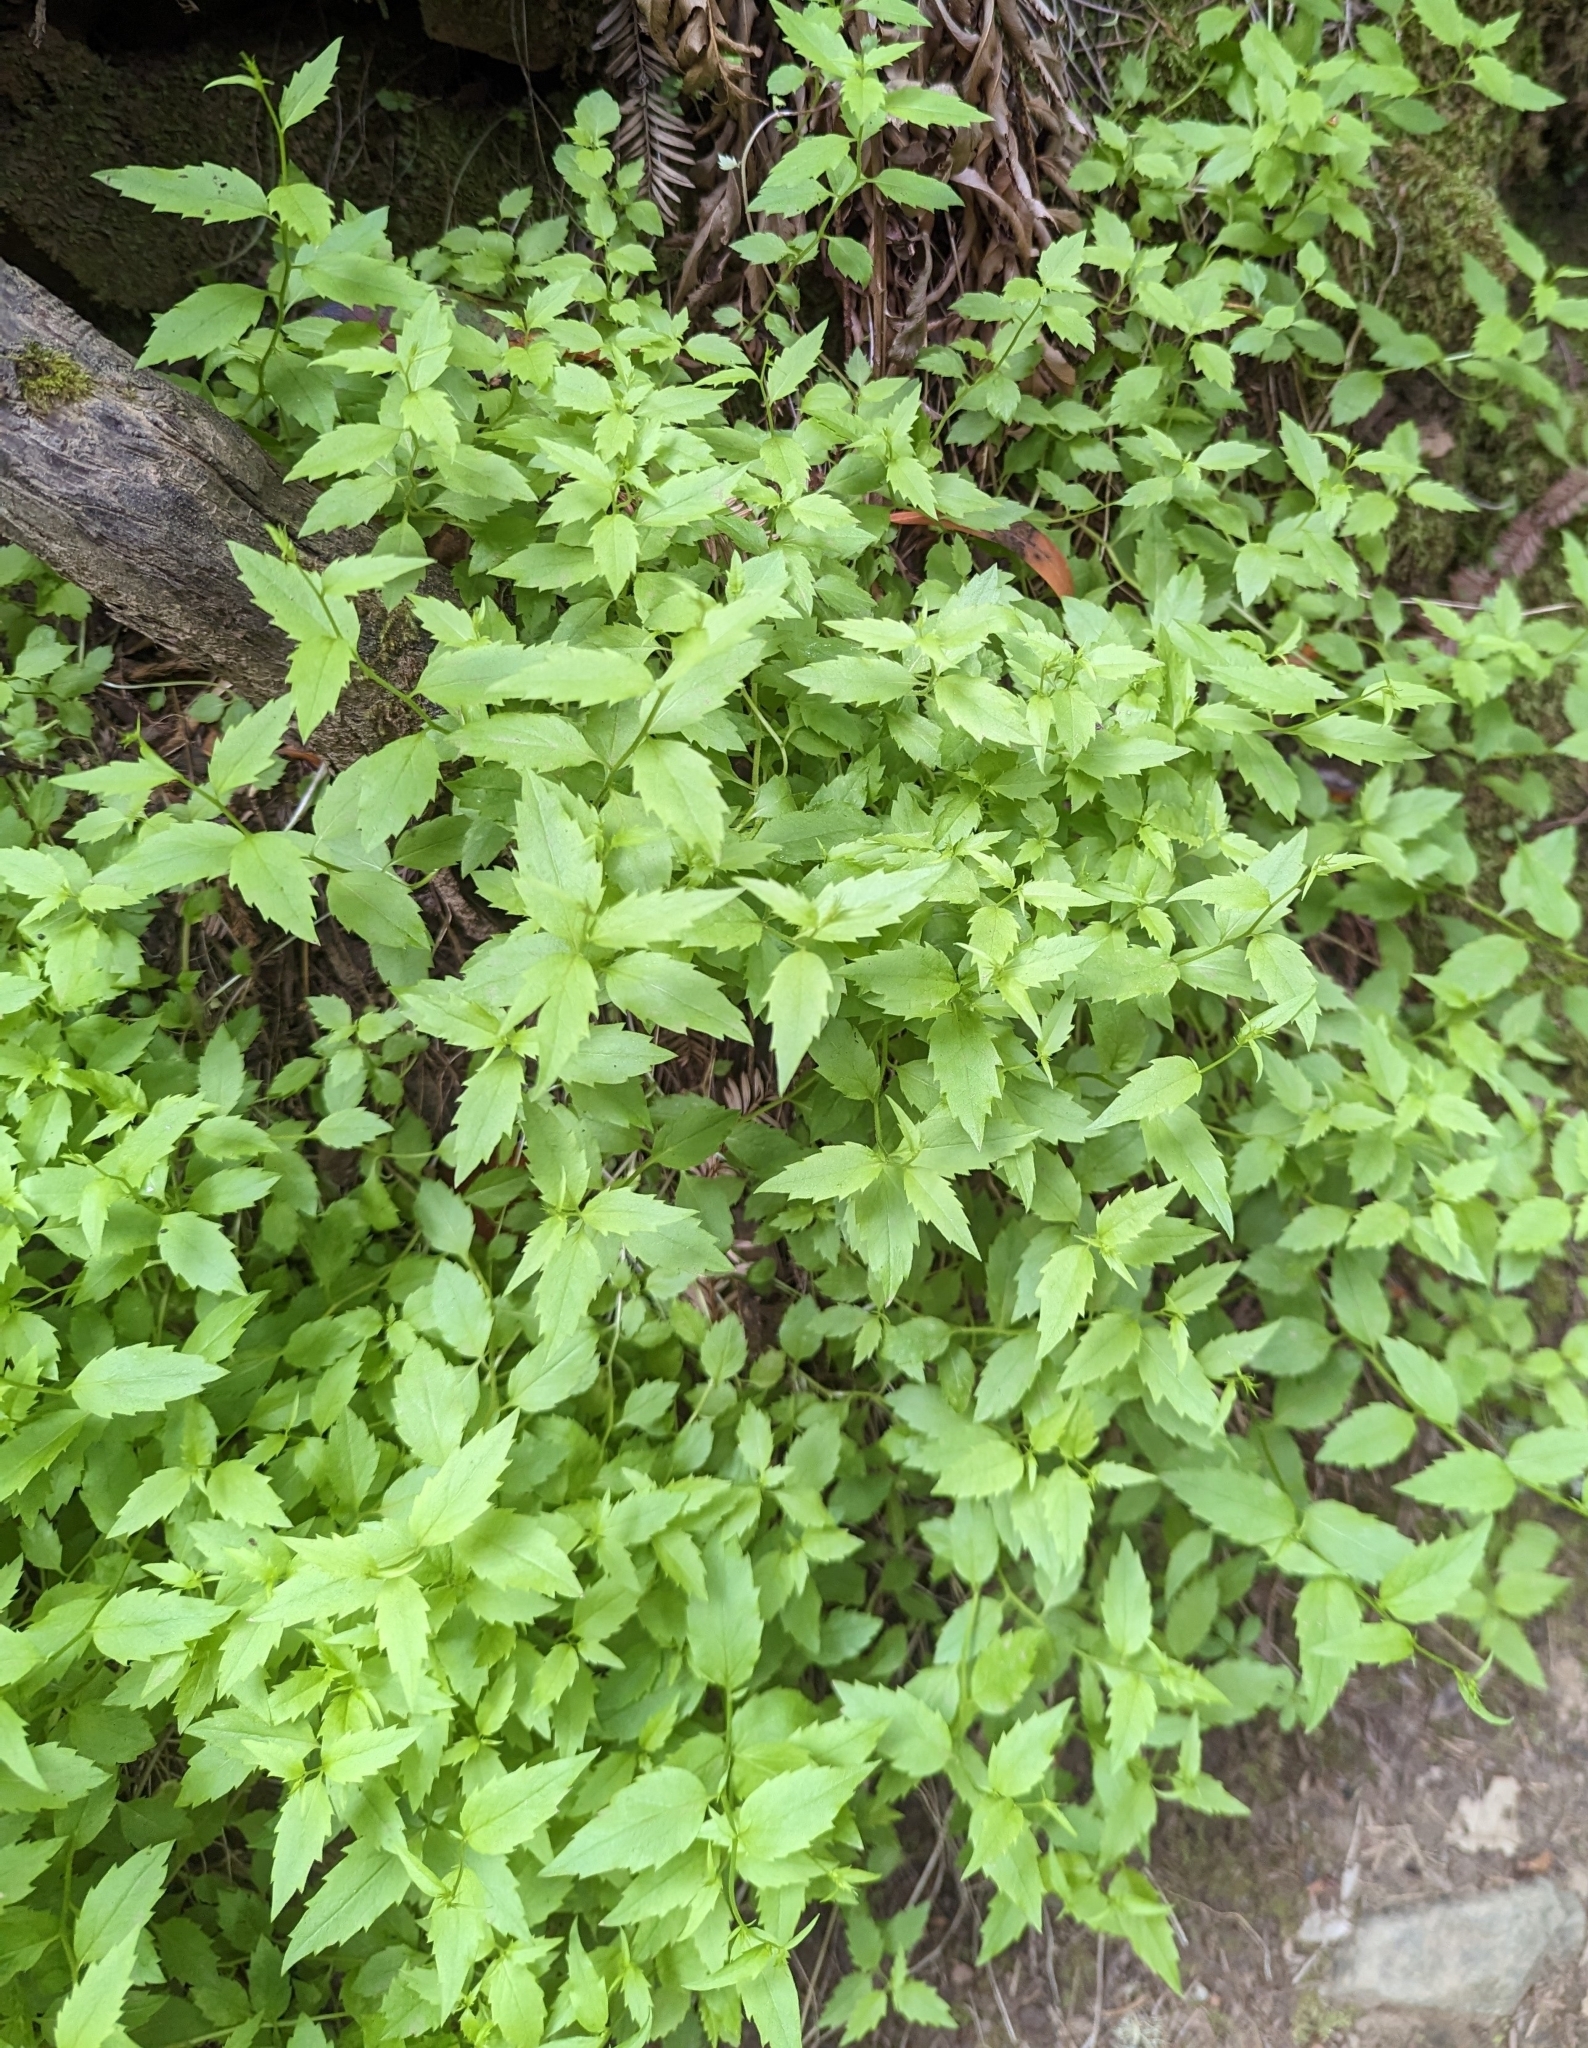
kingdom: Plantae
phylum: Tracheophyta
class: Magnoliopsida
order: Asterales
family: Campanulaceae
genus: Smithiastrum
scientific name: Smithiastrum prenanthoides
